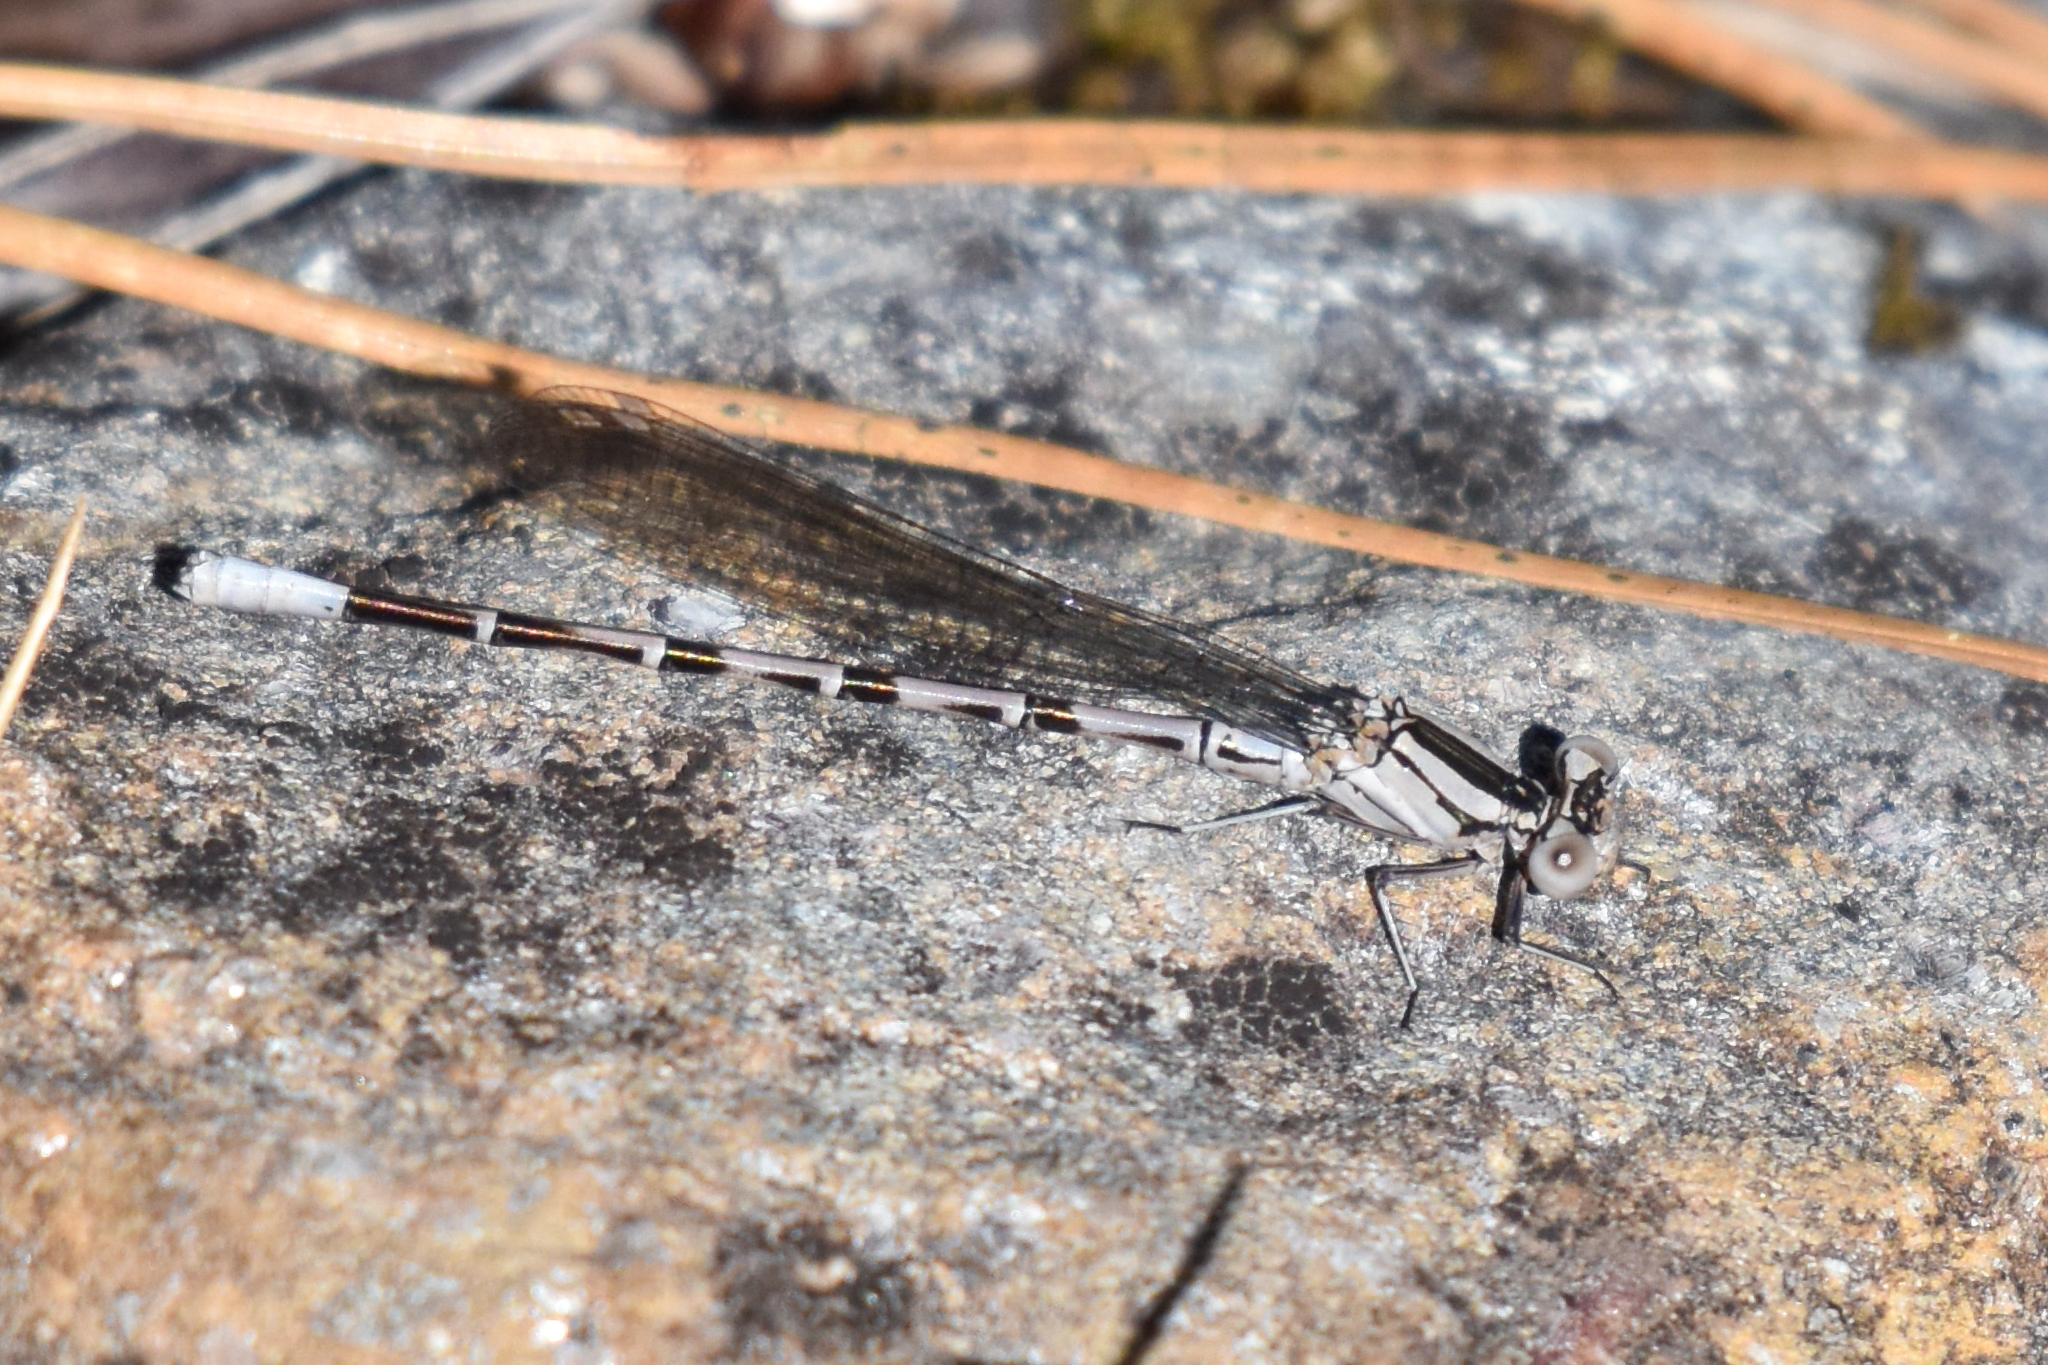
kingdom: Animalia
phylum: Arthropoda
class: Insecta
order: Odonata
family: Coenagrionidae
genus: Argia
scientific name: Argia vivida
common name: Vivid dancer
